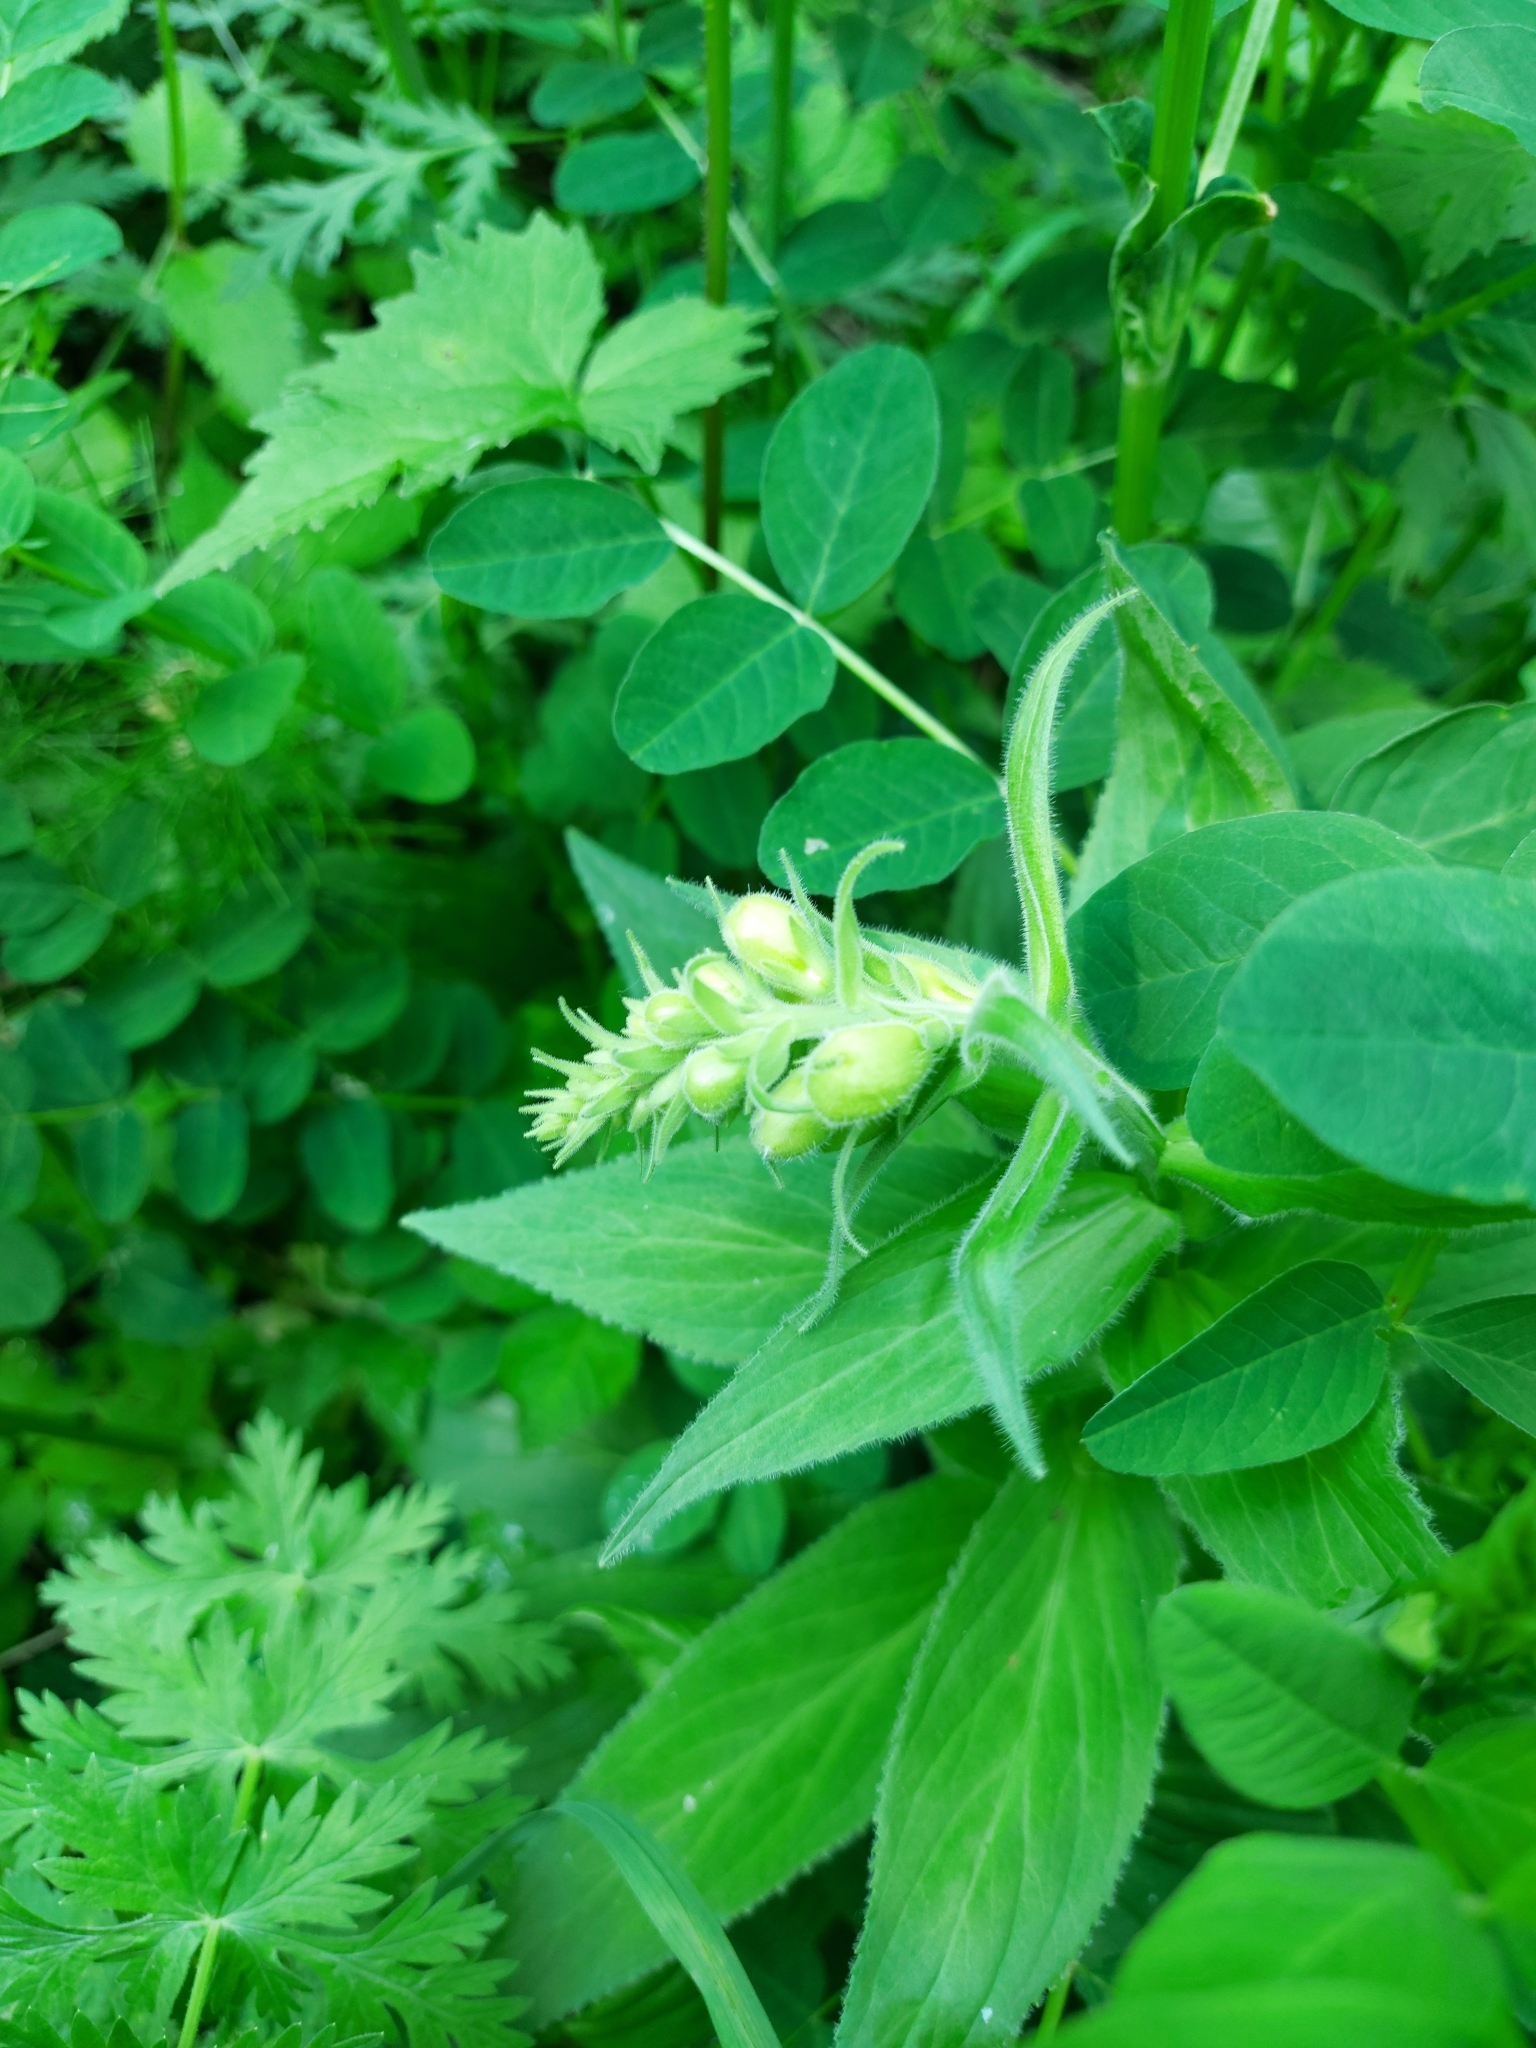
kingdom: Plantae
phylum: Tracheophyta
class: Magnoliopsida
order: Lamiales
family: Plantaginaceae
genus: Digitalis
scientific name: Digitalis grandiflora
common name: Yellow foxglove
